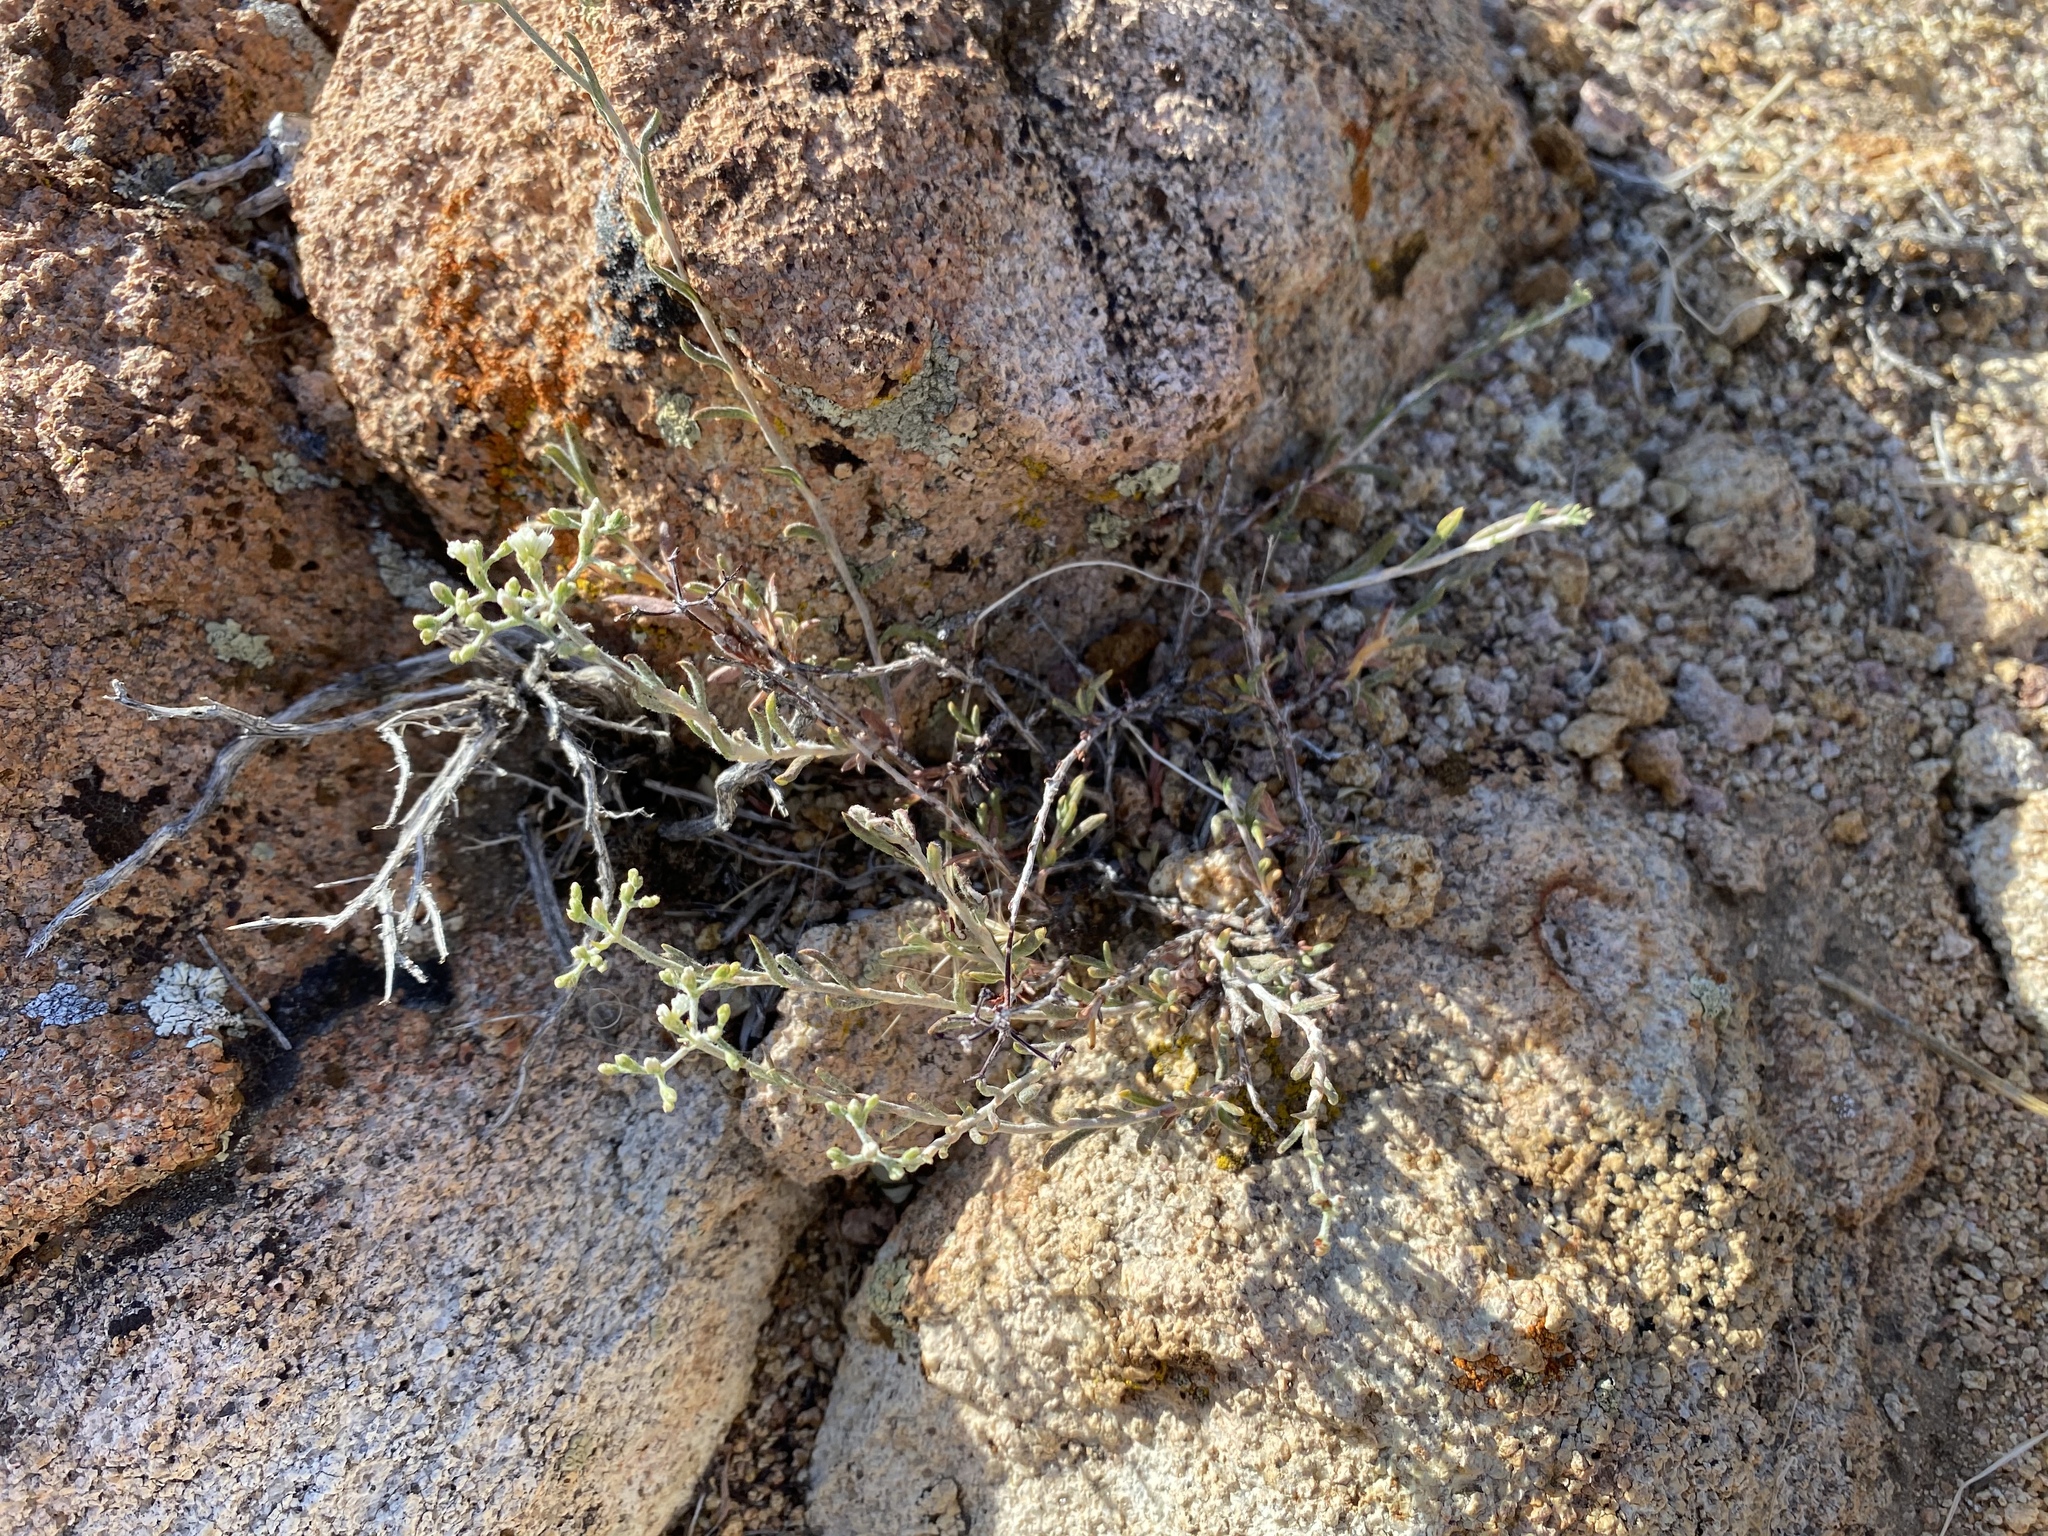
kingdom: Plantae
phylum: Tracheophyta
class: Magnoliopsida
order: Caryophyllales
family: Polygonaceae
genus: Eriogonum
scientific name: Eriogonum microtheca
